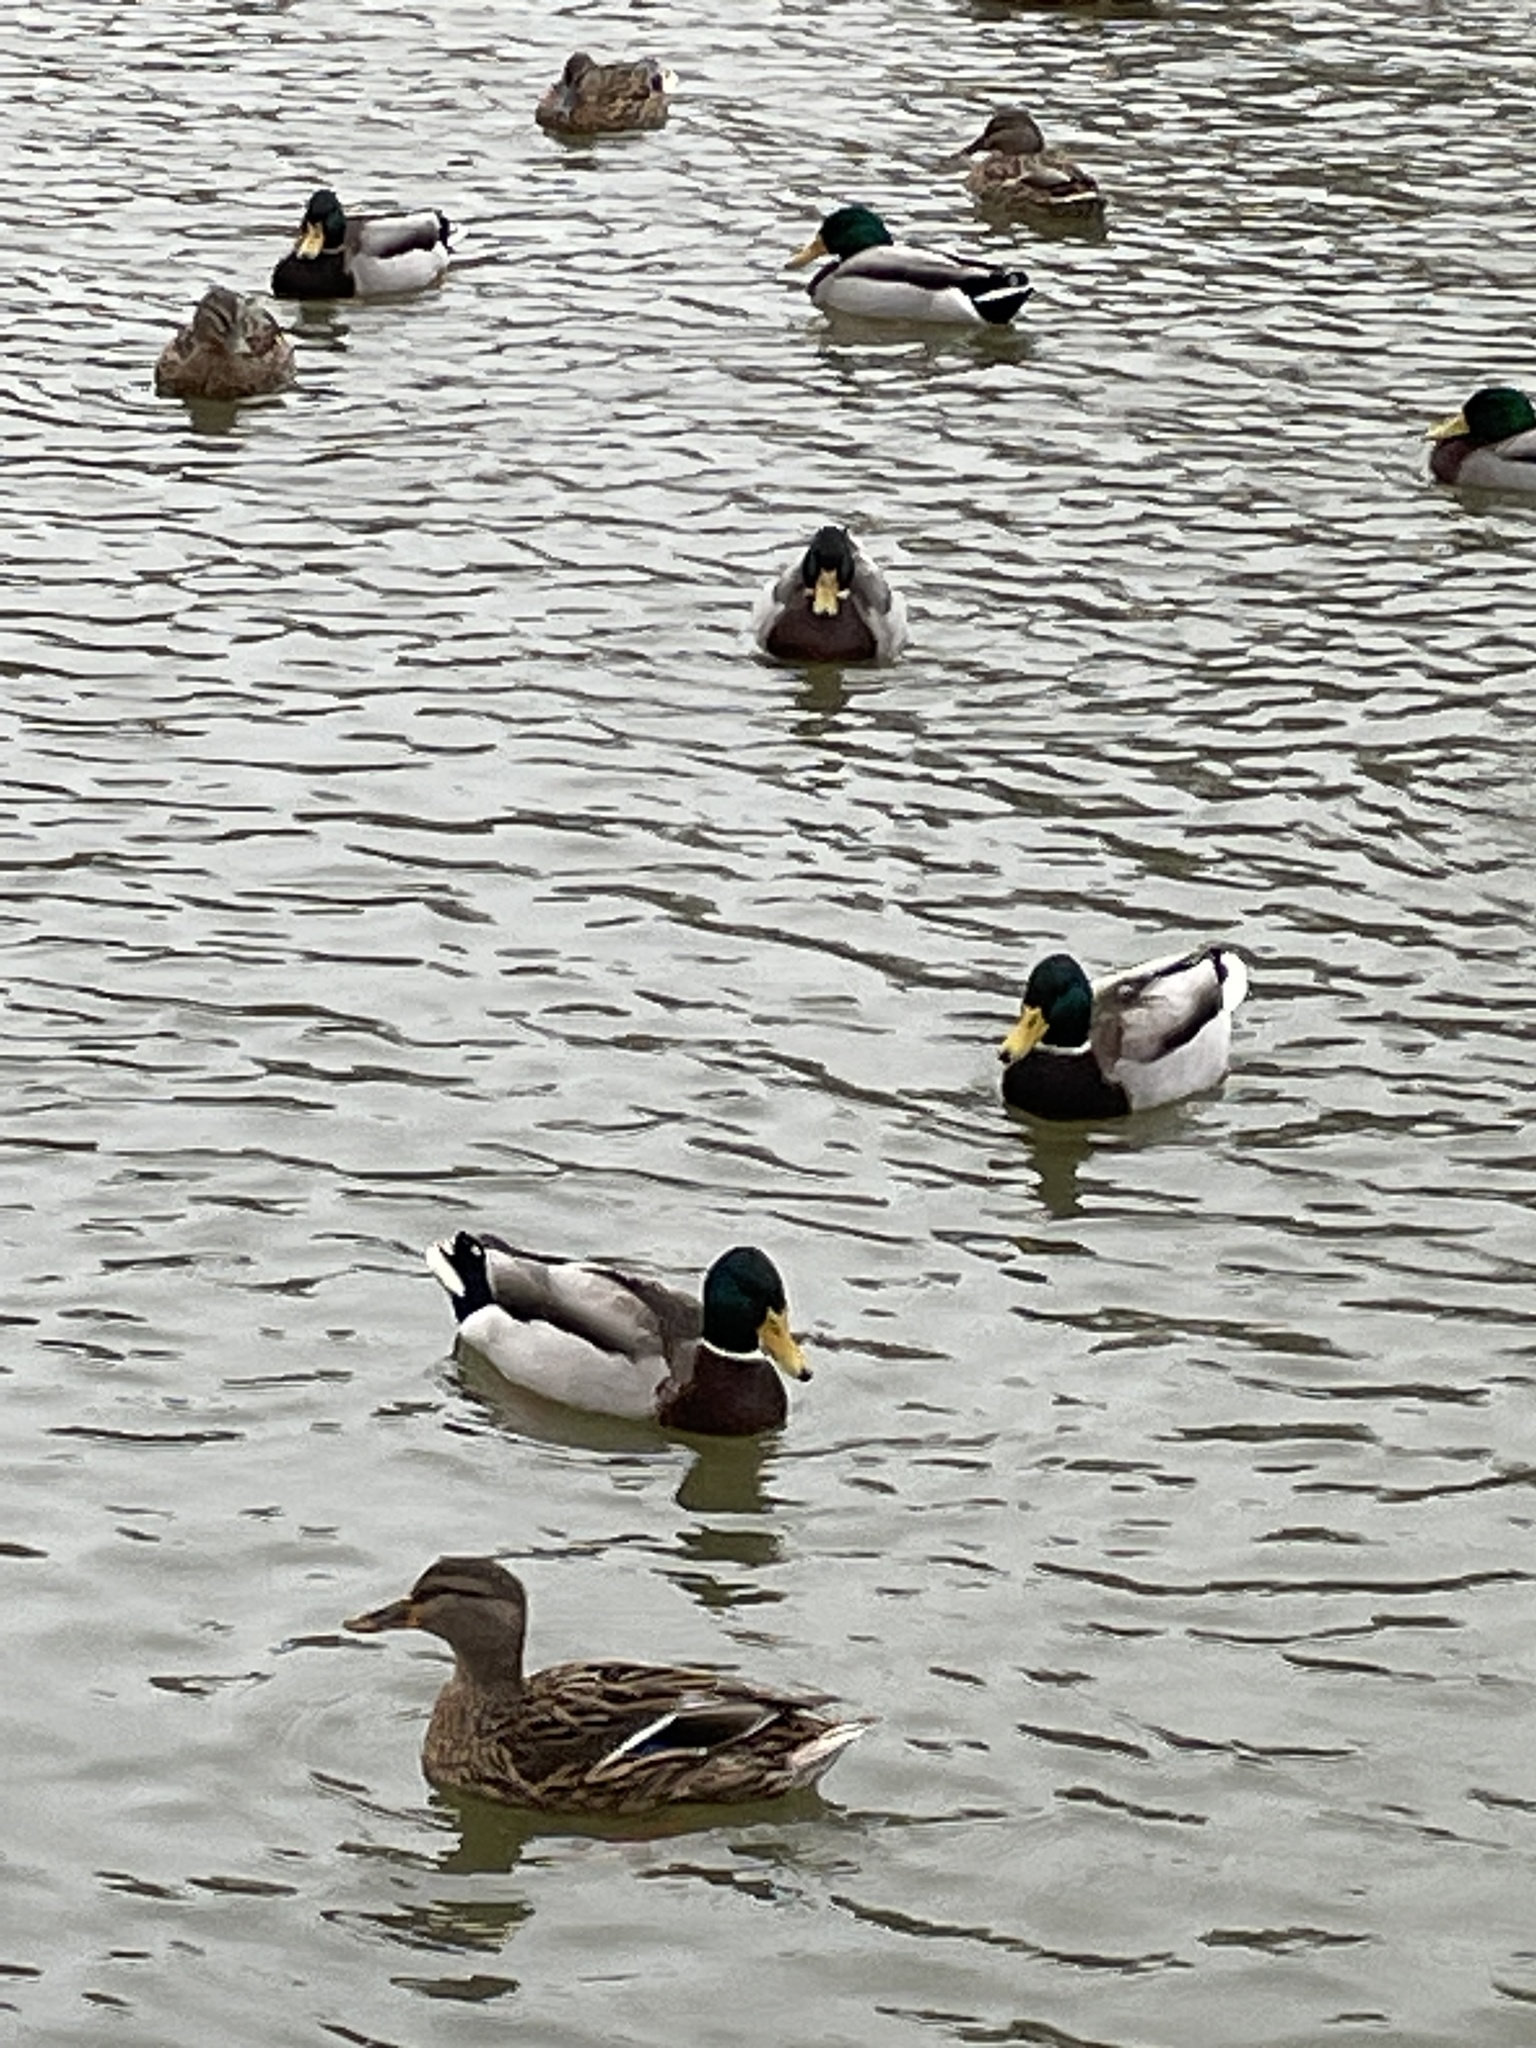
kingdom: Animalia
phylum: Chordata
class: Aves
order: Anseriformes
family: Anatidae
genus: Anas
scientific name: Anas platyrhynchos
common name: Mallard
